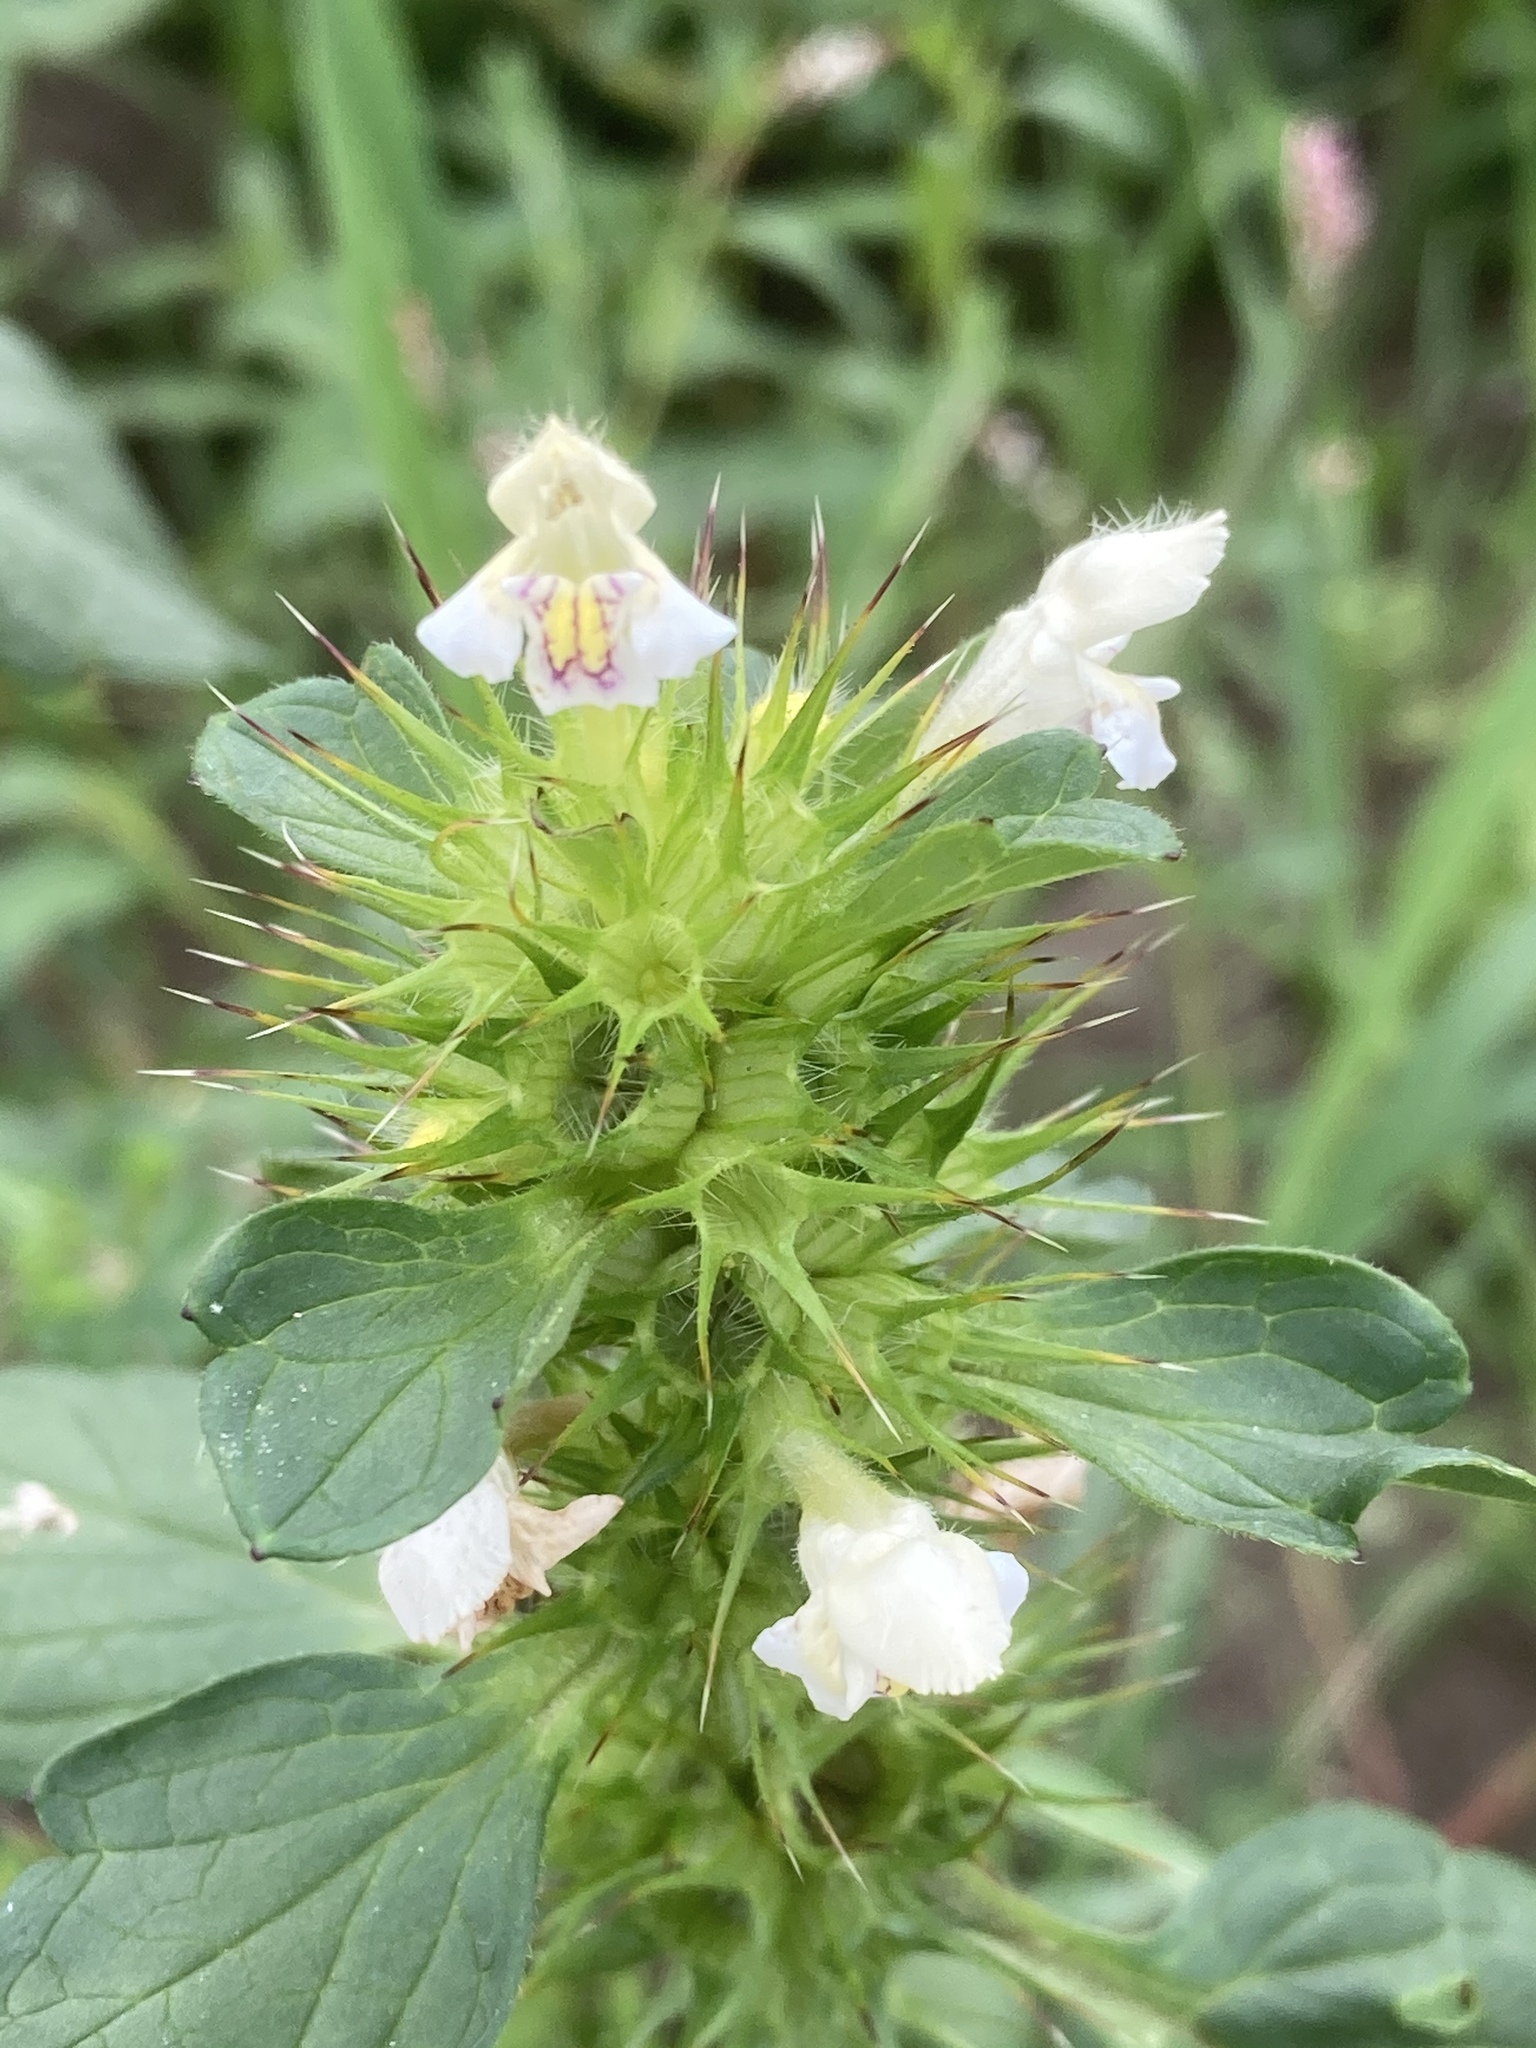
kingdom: Plantae
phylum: Tracheophyta
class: Magnoliopsida
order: Lamiales
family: Lamiaceae
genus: Galeopsis
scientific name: Galeopsis tetrahit
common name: Common hemp-nettle
